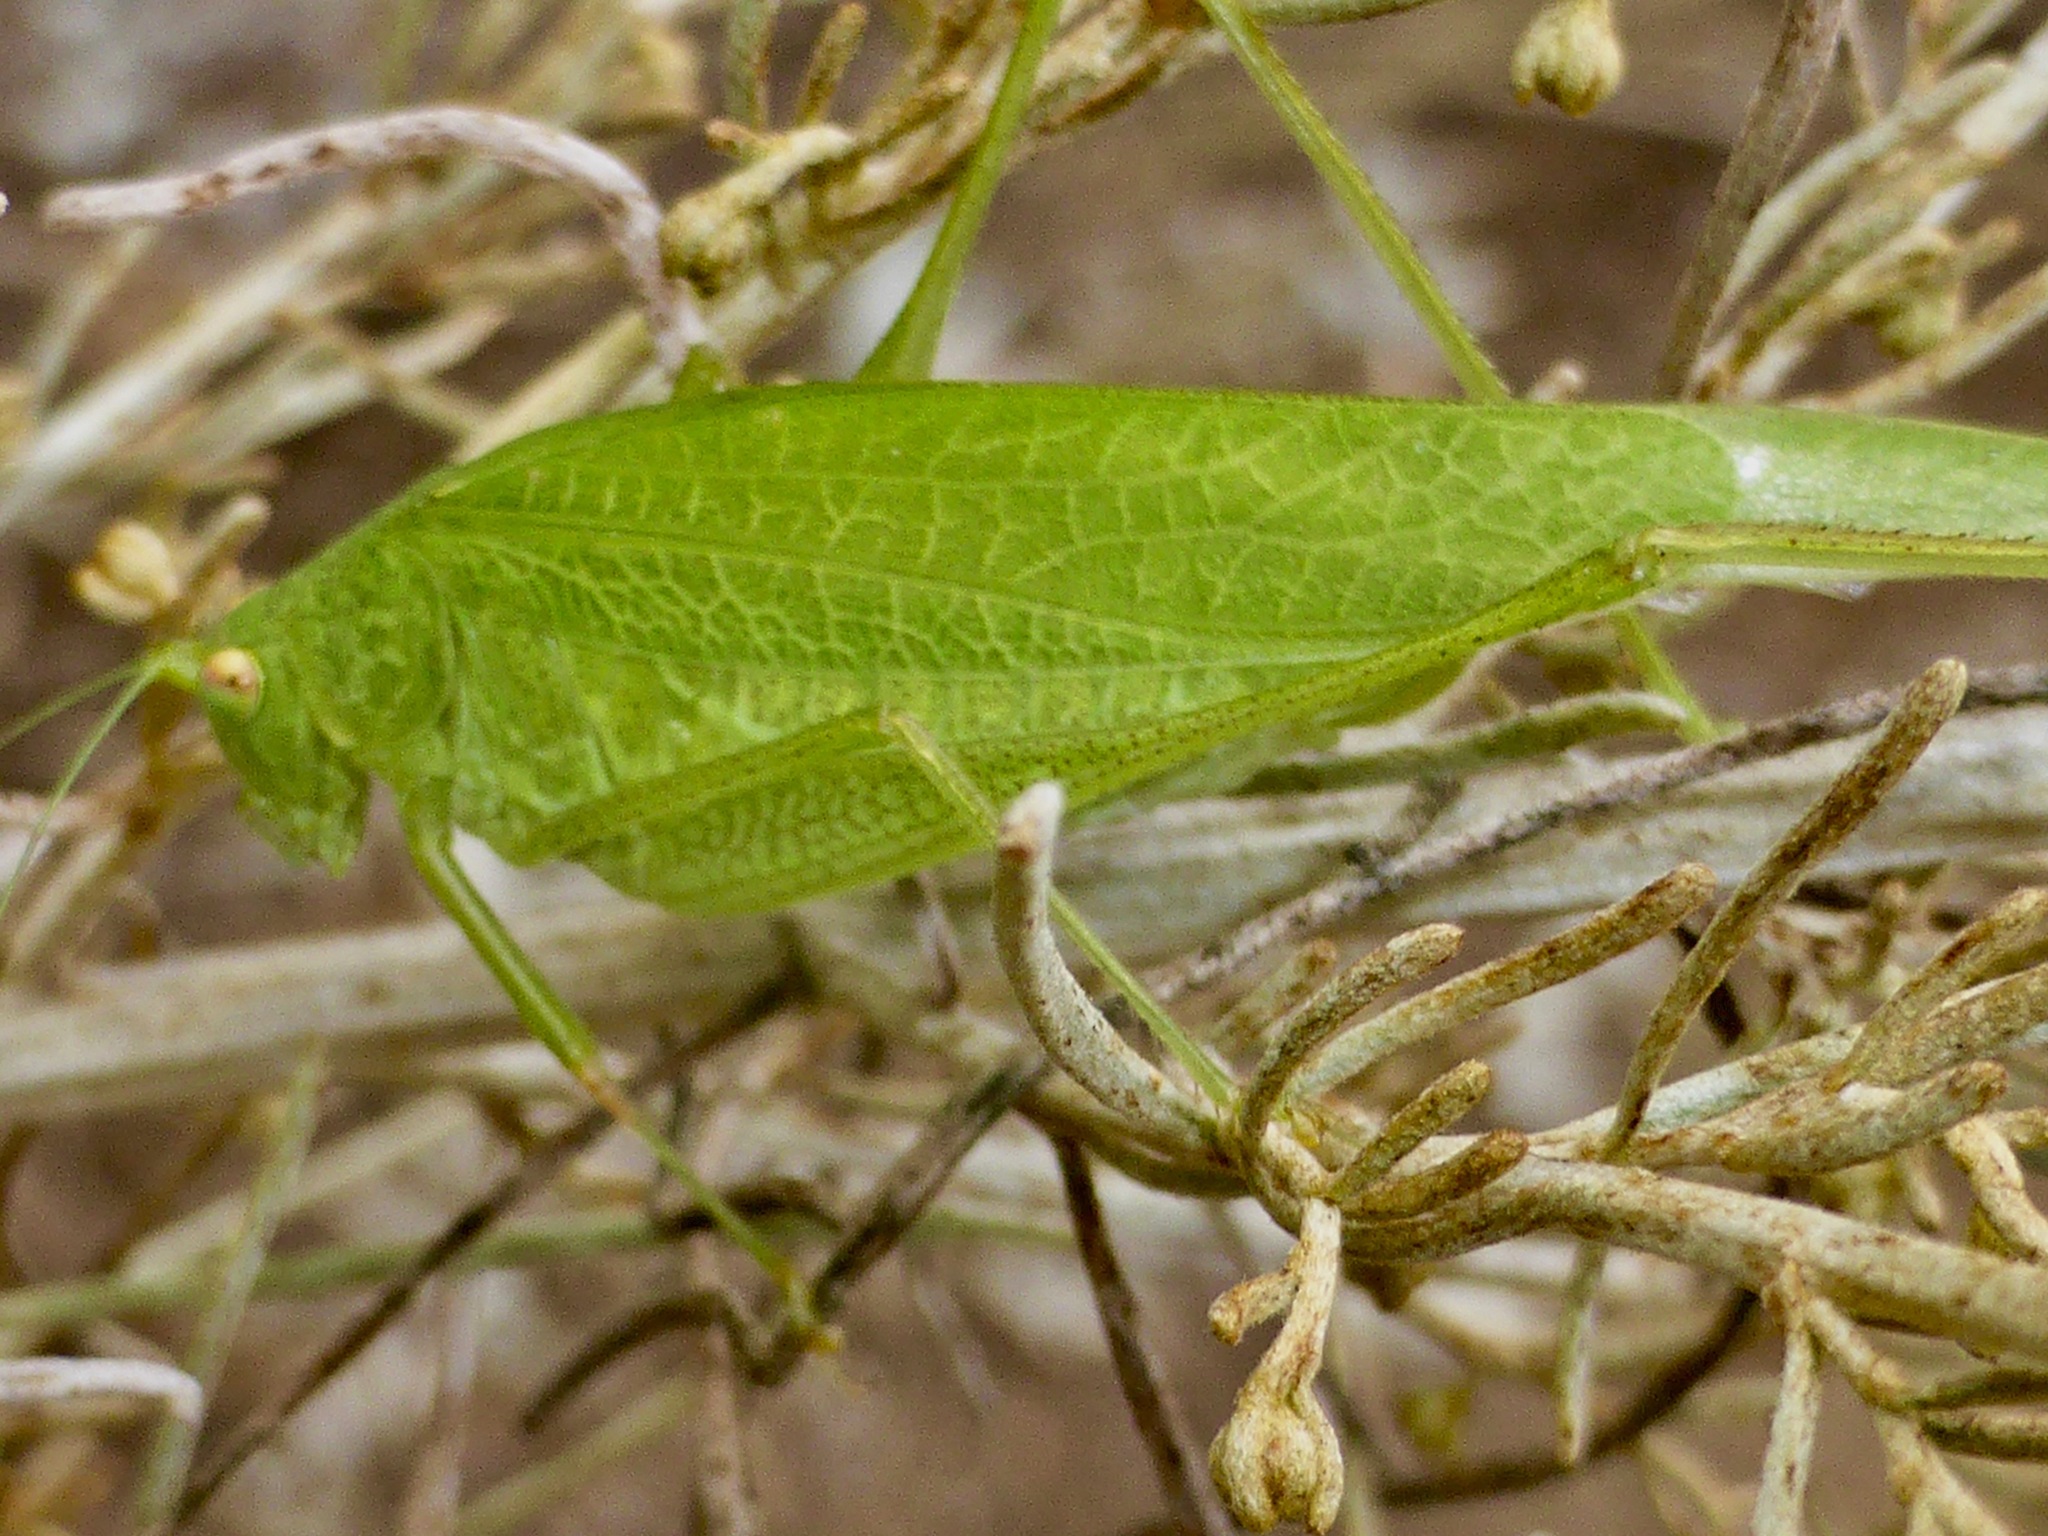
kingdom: Animalia
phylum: Arthropoda
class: Insecta
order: Orthoptera
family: Tettigoniidae
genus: Phaneroptera
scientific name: Phaneroptera nana
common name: Southern sickle bush-cricket
